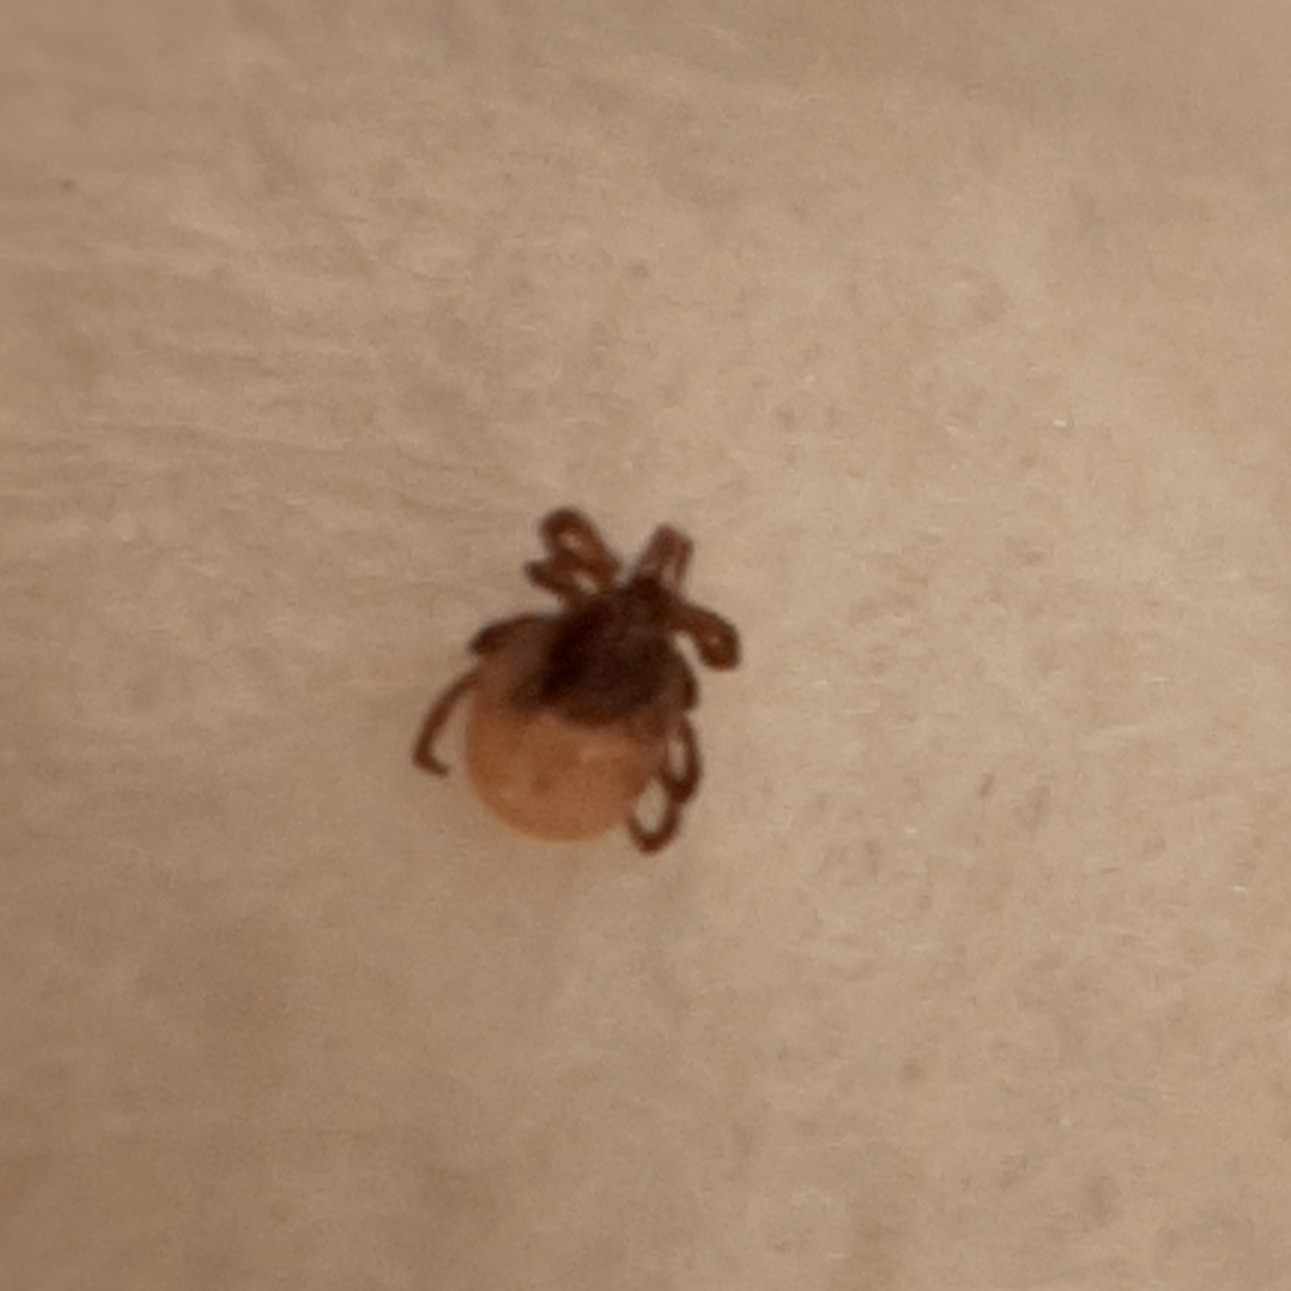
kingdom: Animalia
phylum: Arthropoda
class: Arachnida
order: Ixodida
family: Ixodidae
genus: Ixodes
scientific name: Ixodes
